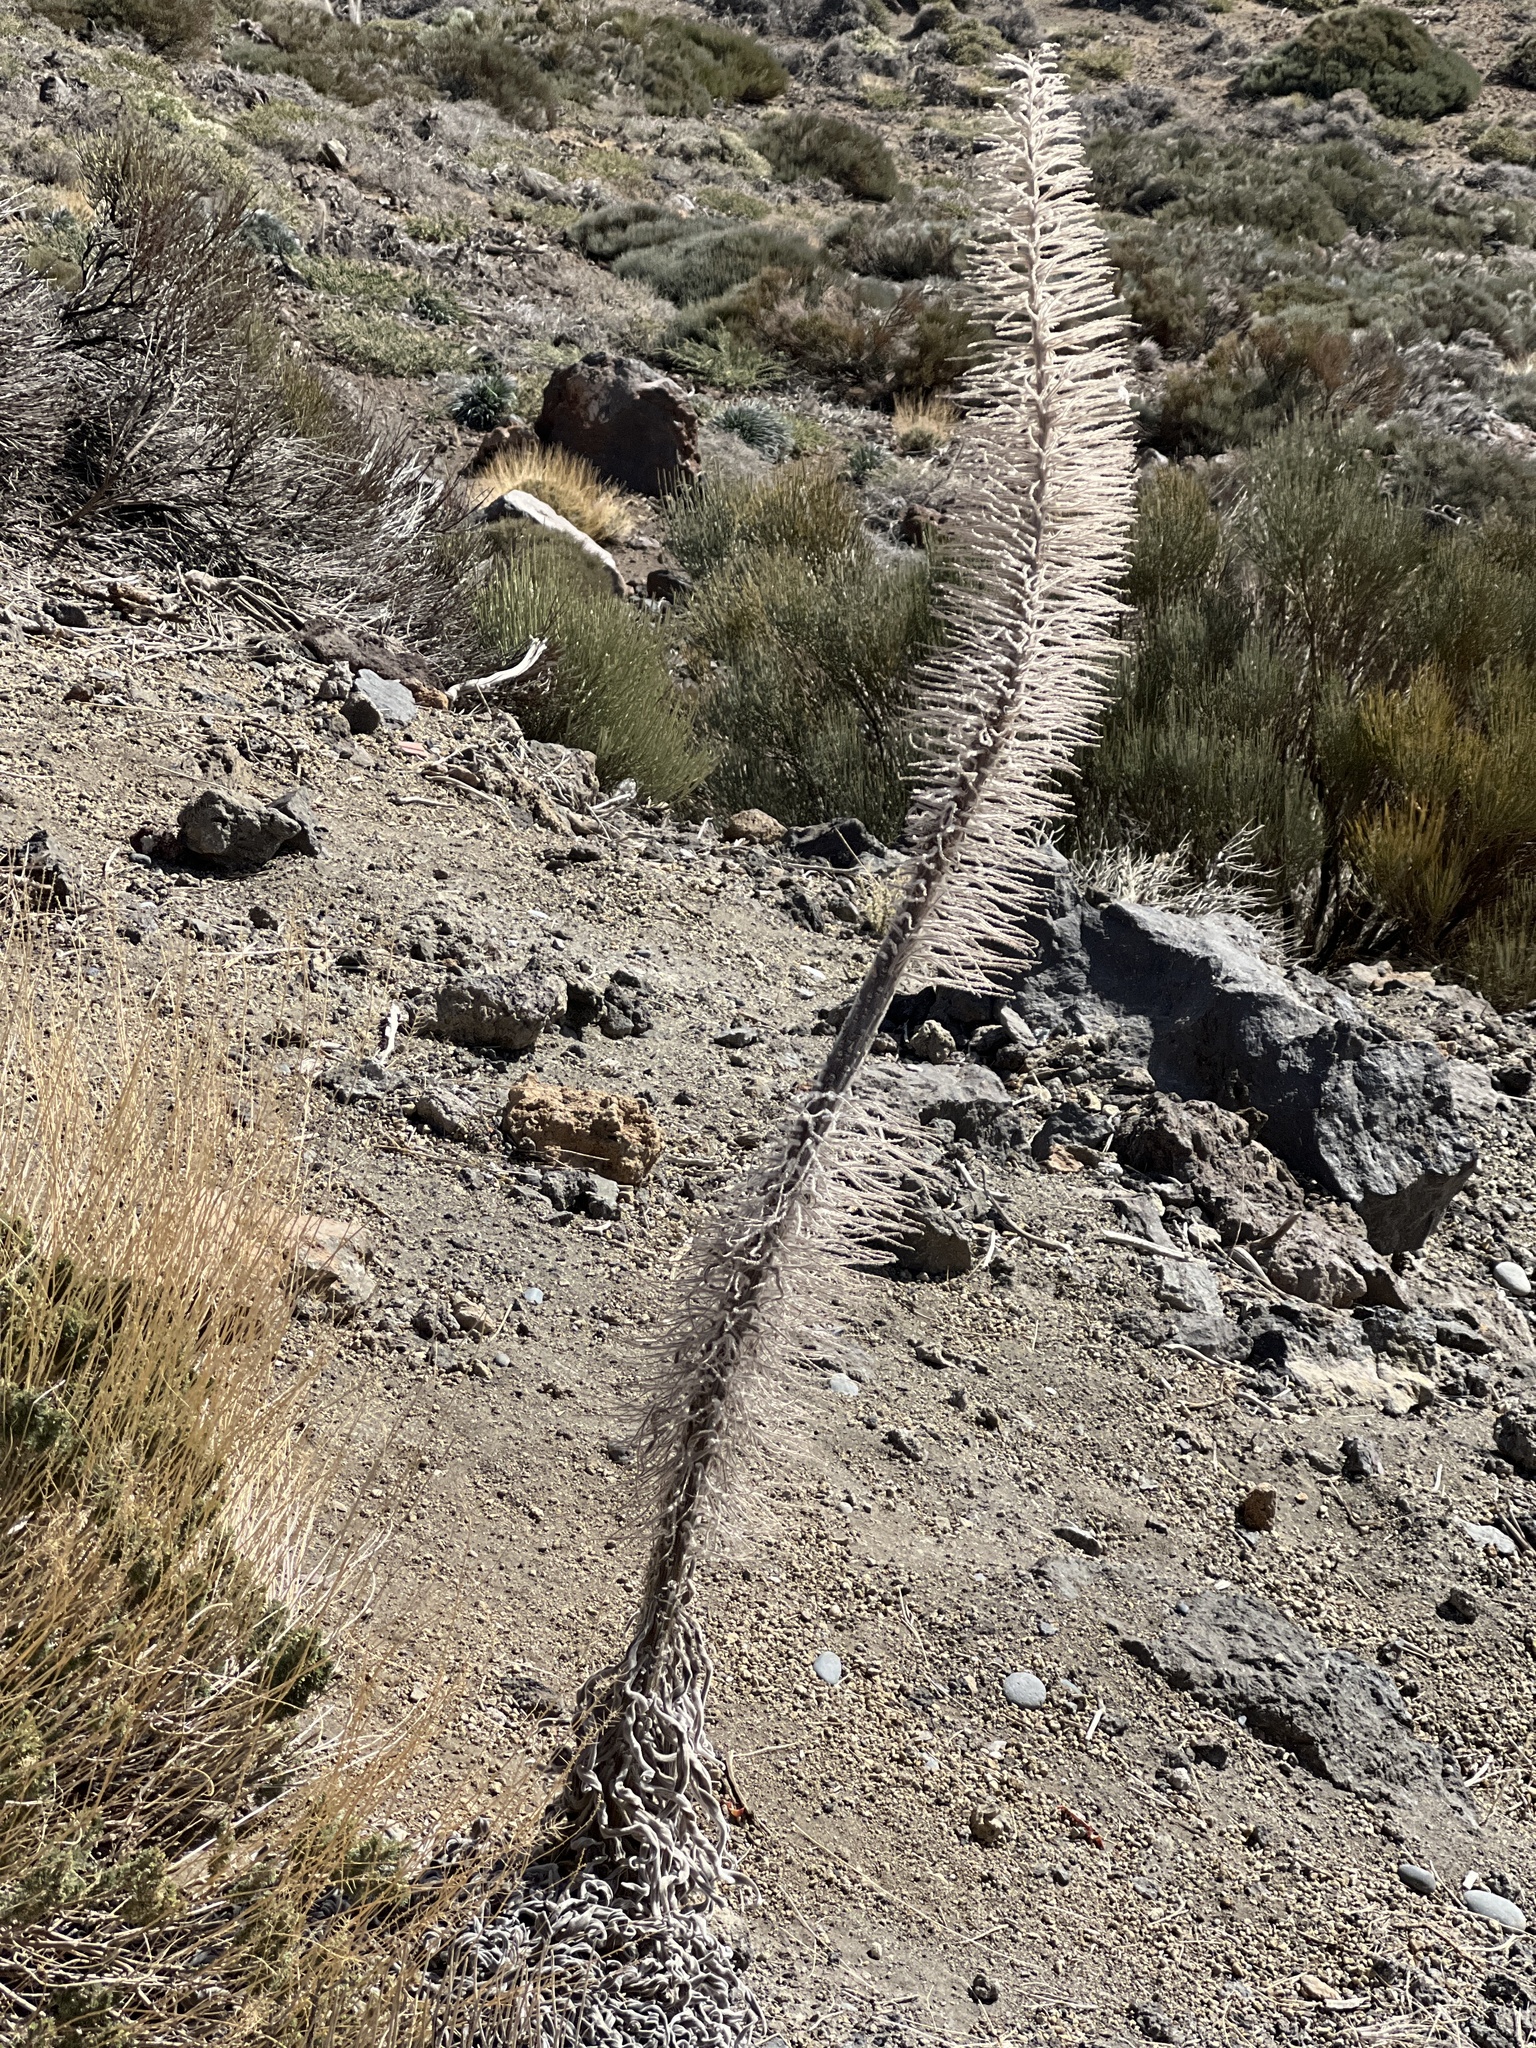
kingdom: Plantae
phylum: Tracheophyta
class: Magnoliopsida
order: Boraginales
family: Boraginaceae
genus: Echium
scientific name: Echium wildpretii
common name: Tower-of-jewels
